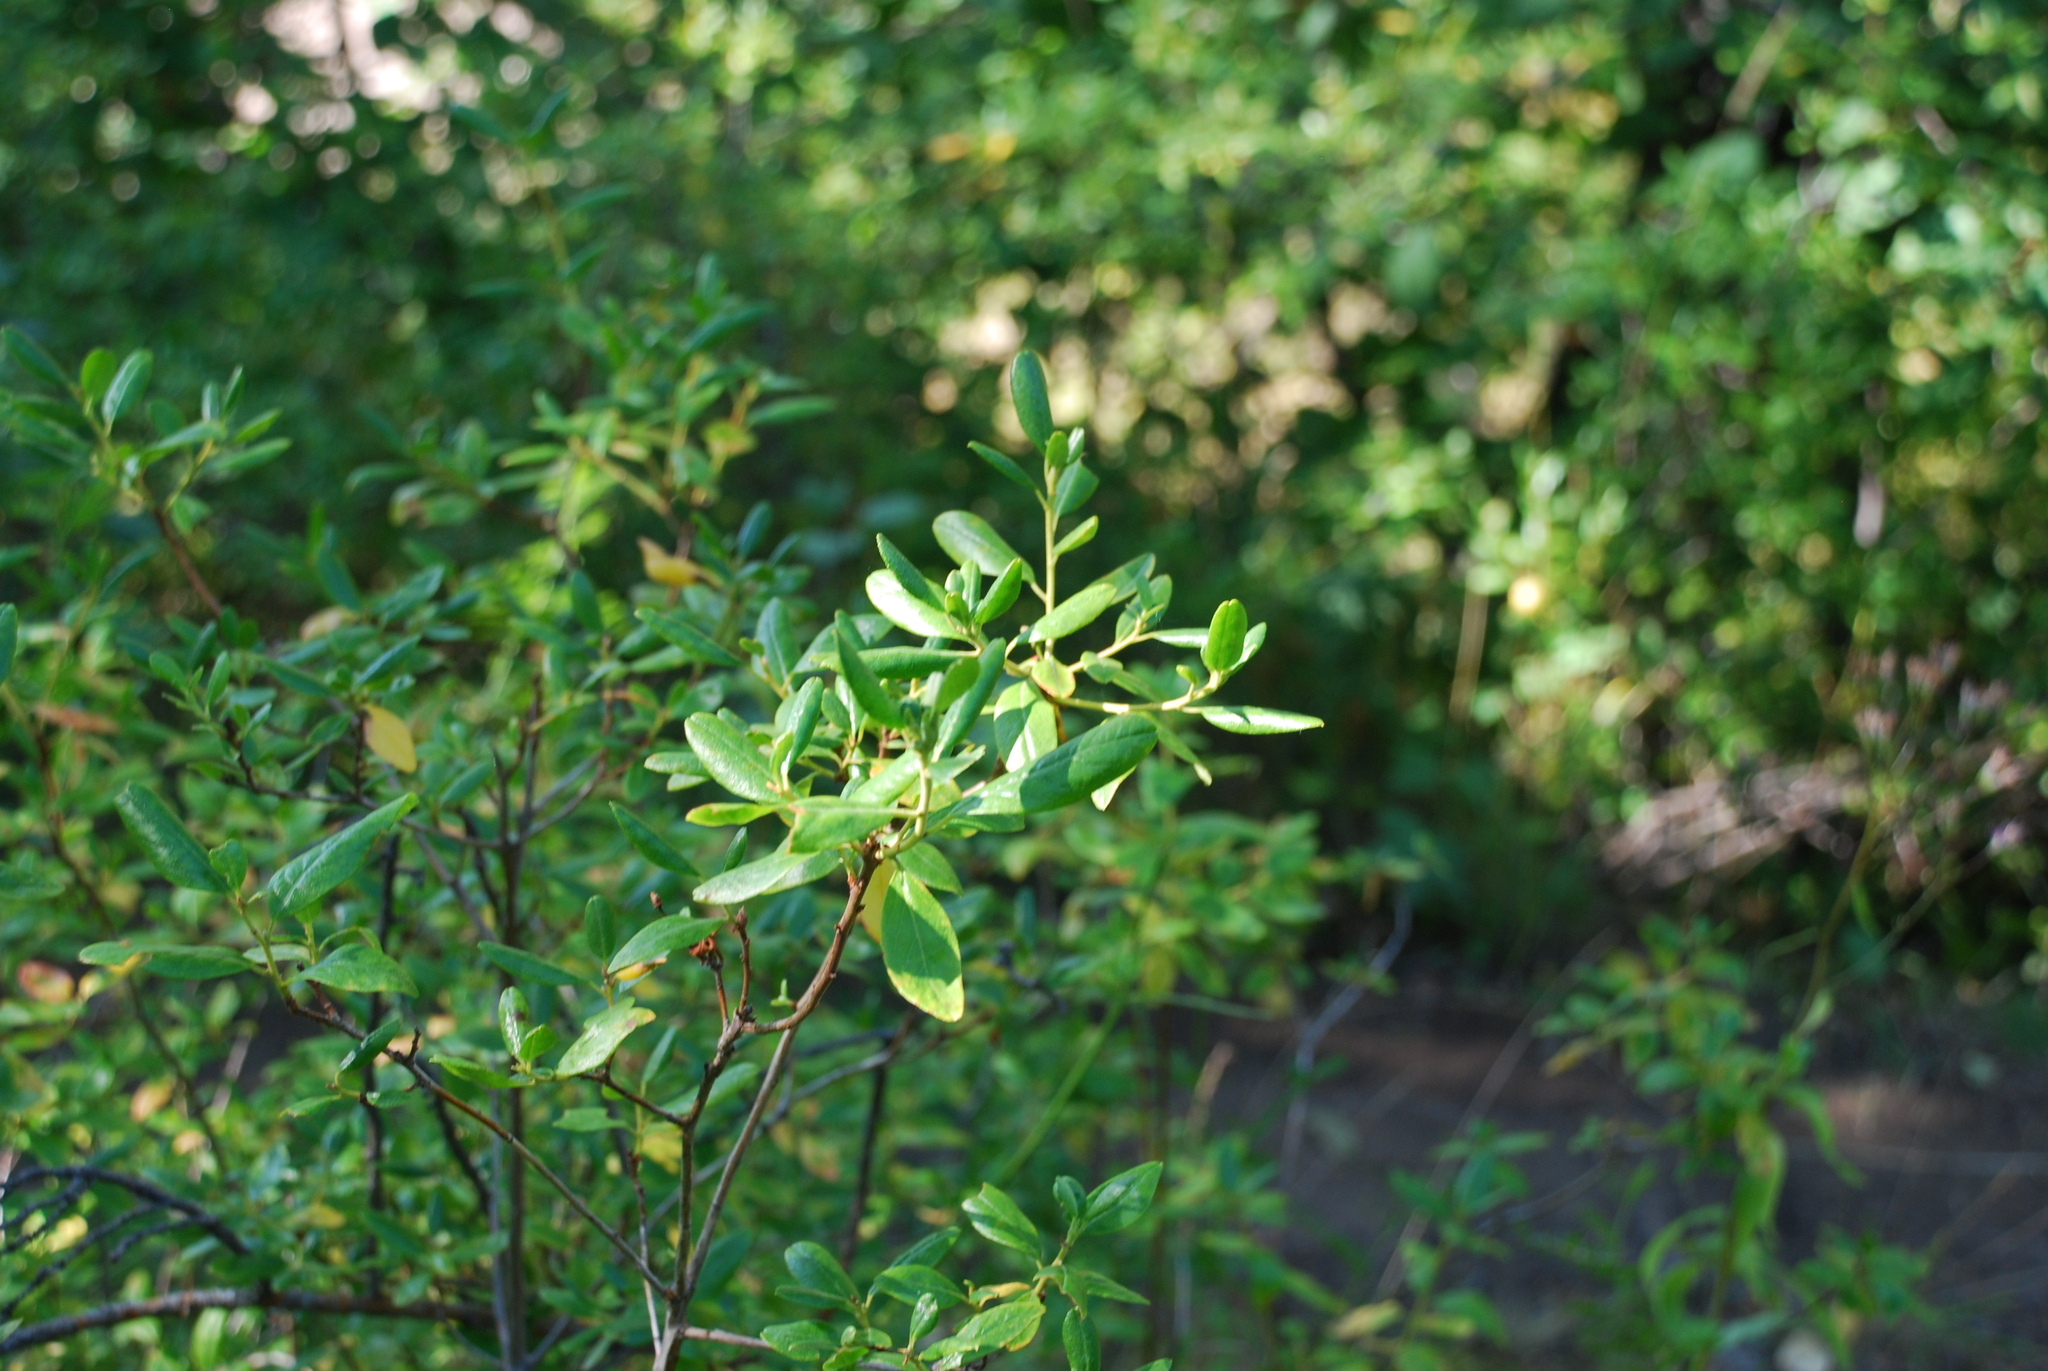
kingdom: Plantae
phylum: Tracheophyta
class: Magnoliopsida
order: Ericales
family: Ericaceae
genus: Rhododendron
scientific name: Rhododendron dauricum
